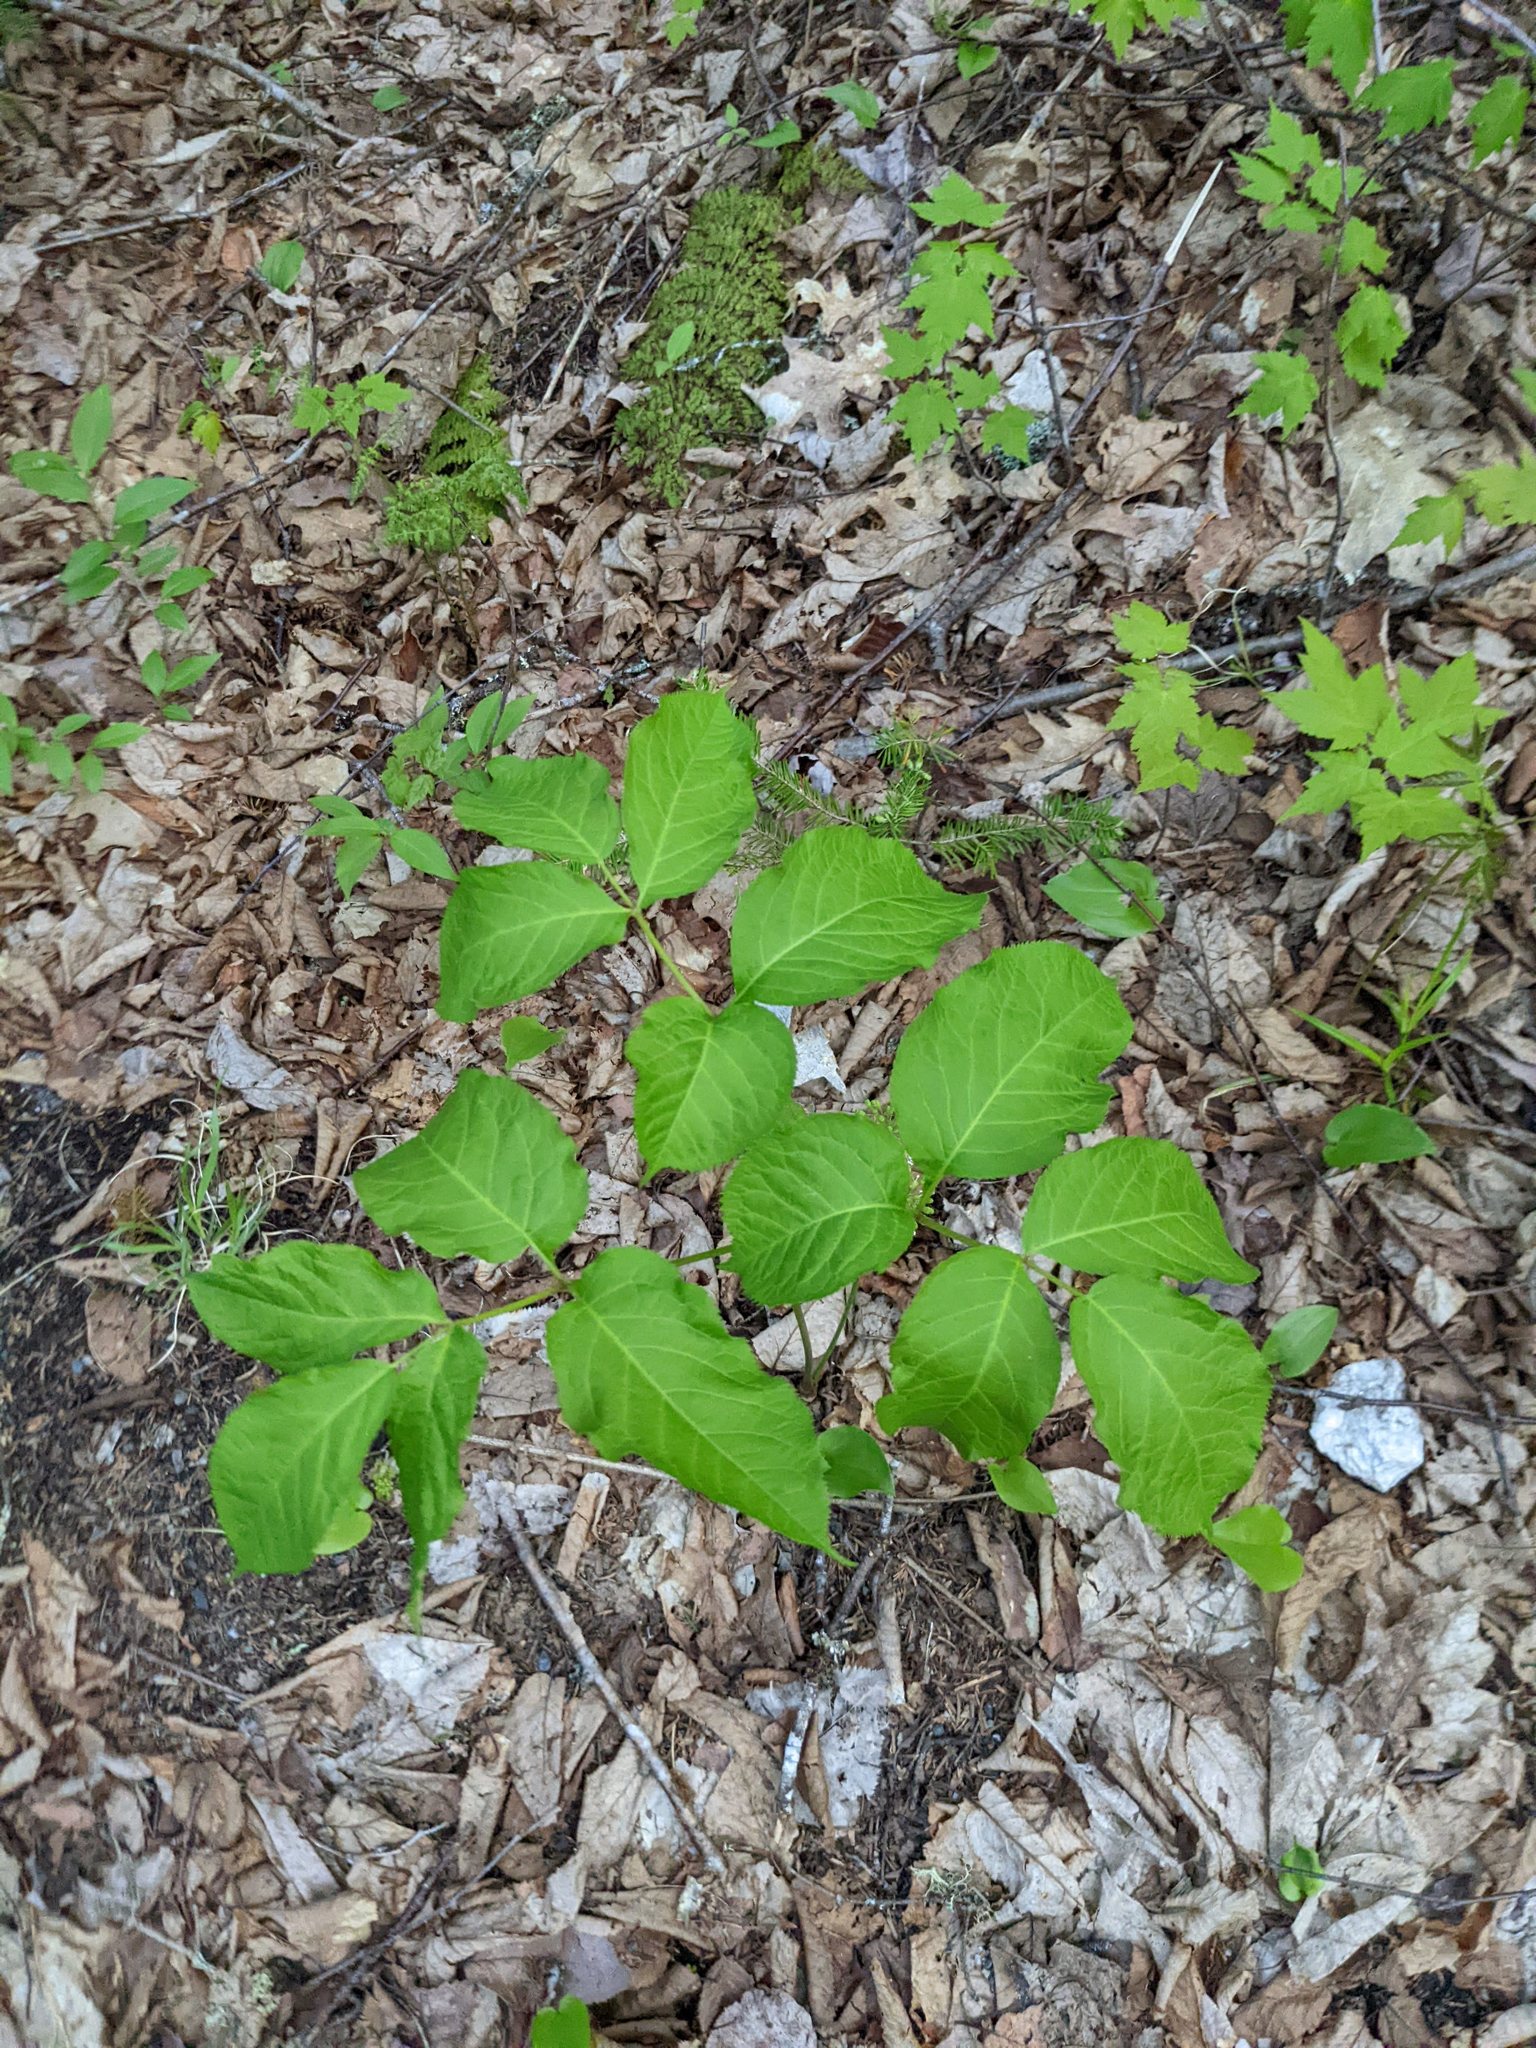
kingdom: Plantae
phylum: Tracheophyta
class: Magnoliopsida
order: Apiales
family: Araliaceae
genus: Aralia
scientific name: Aralia nudicaulis
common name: Wild sarsaparilla
